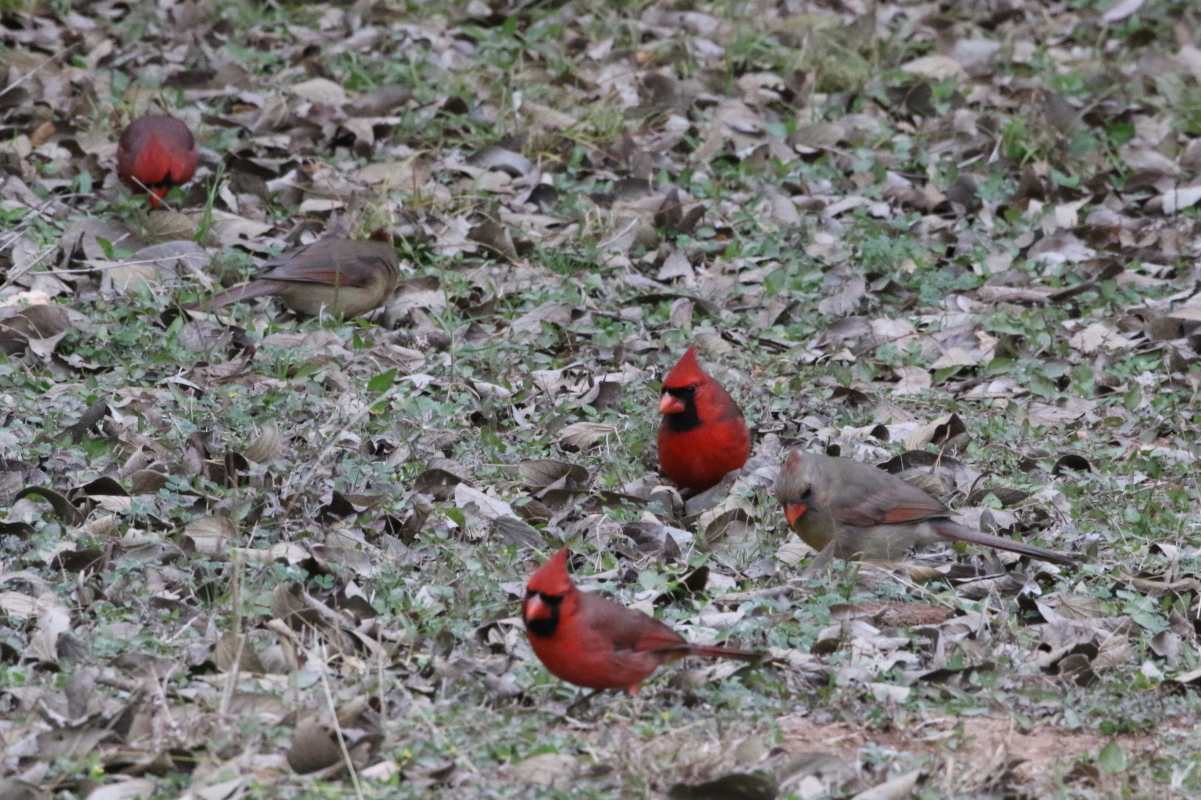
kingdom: Animalia
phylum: Chordata
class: Aves
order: Passeriformes
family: Cardinalidae
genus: Cardinalis
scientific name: Cardinalis cardinalis
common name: Northern cardinal
